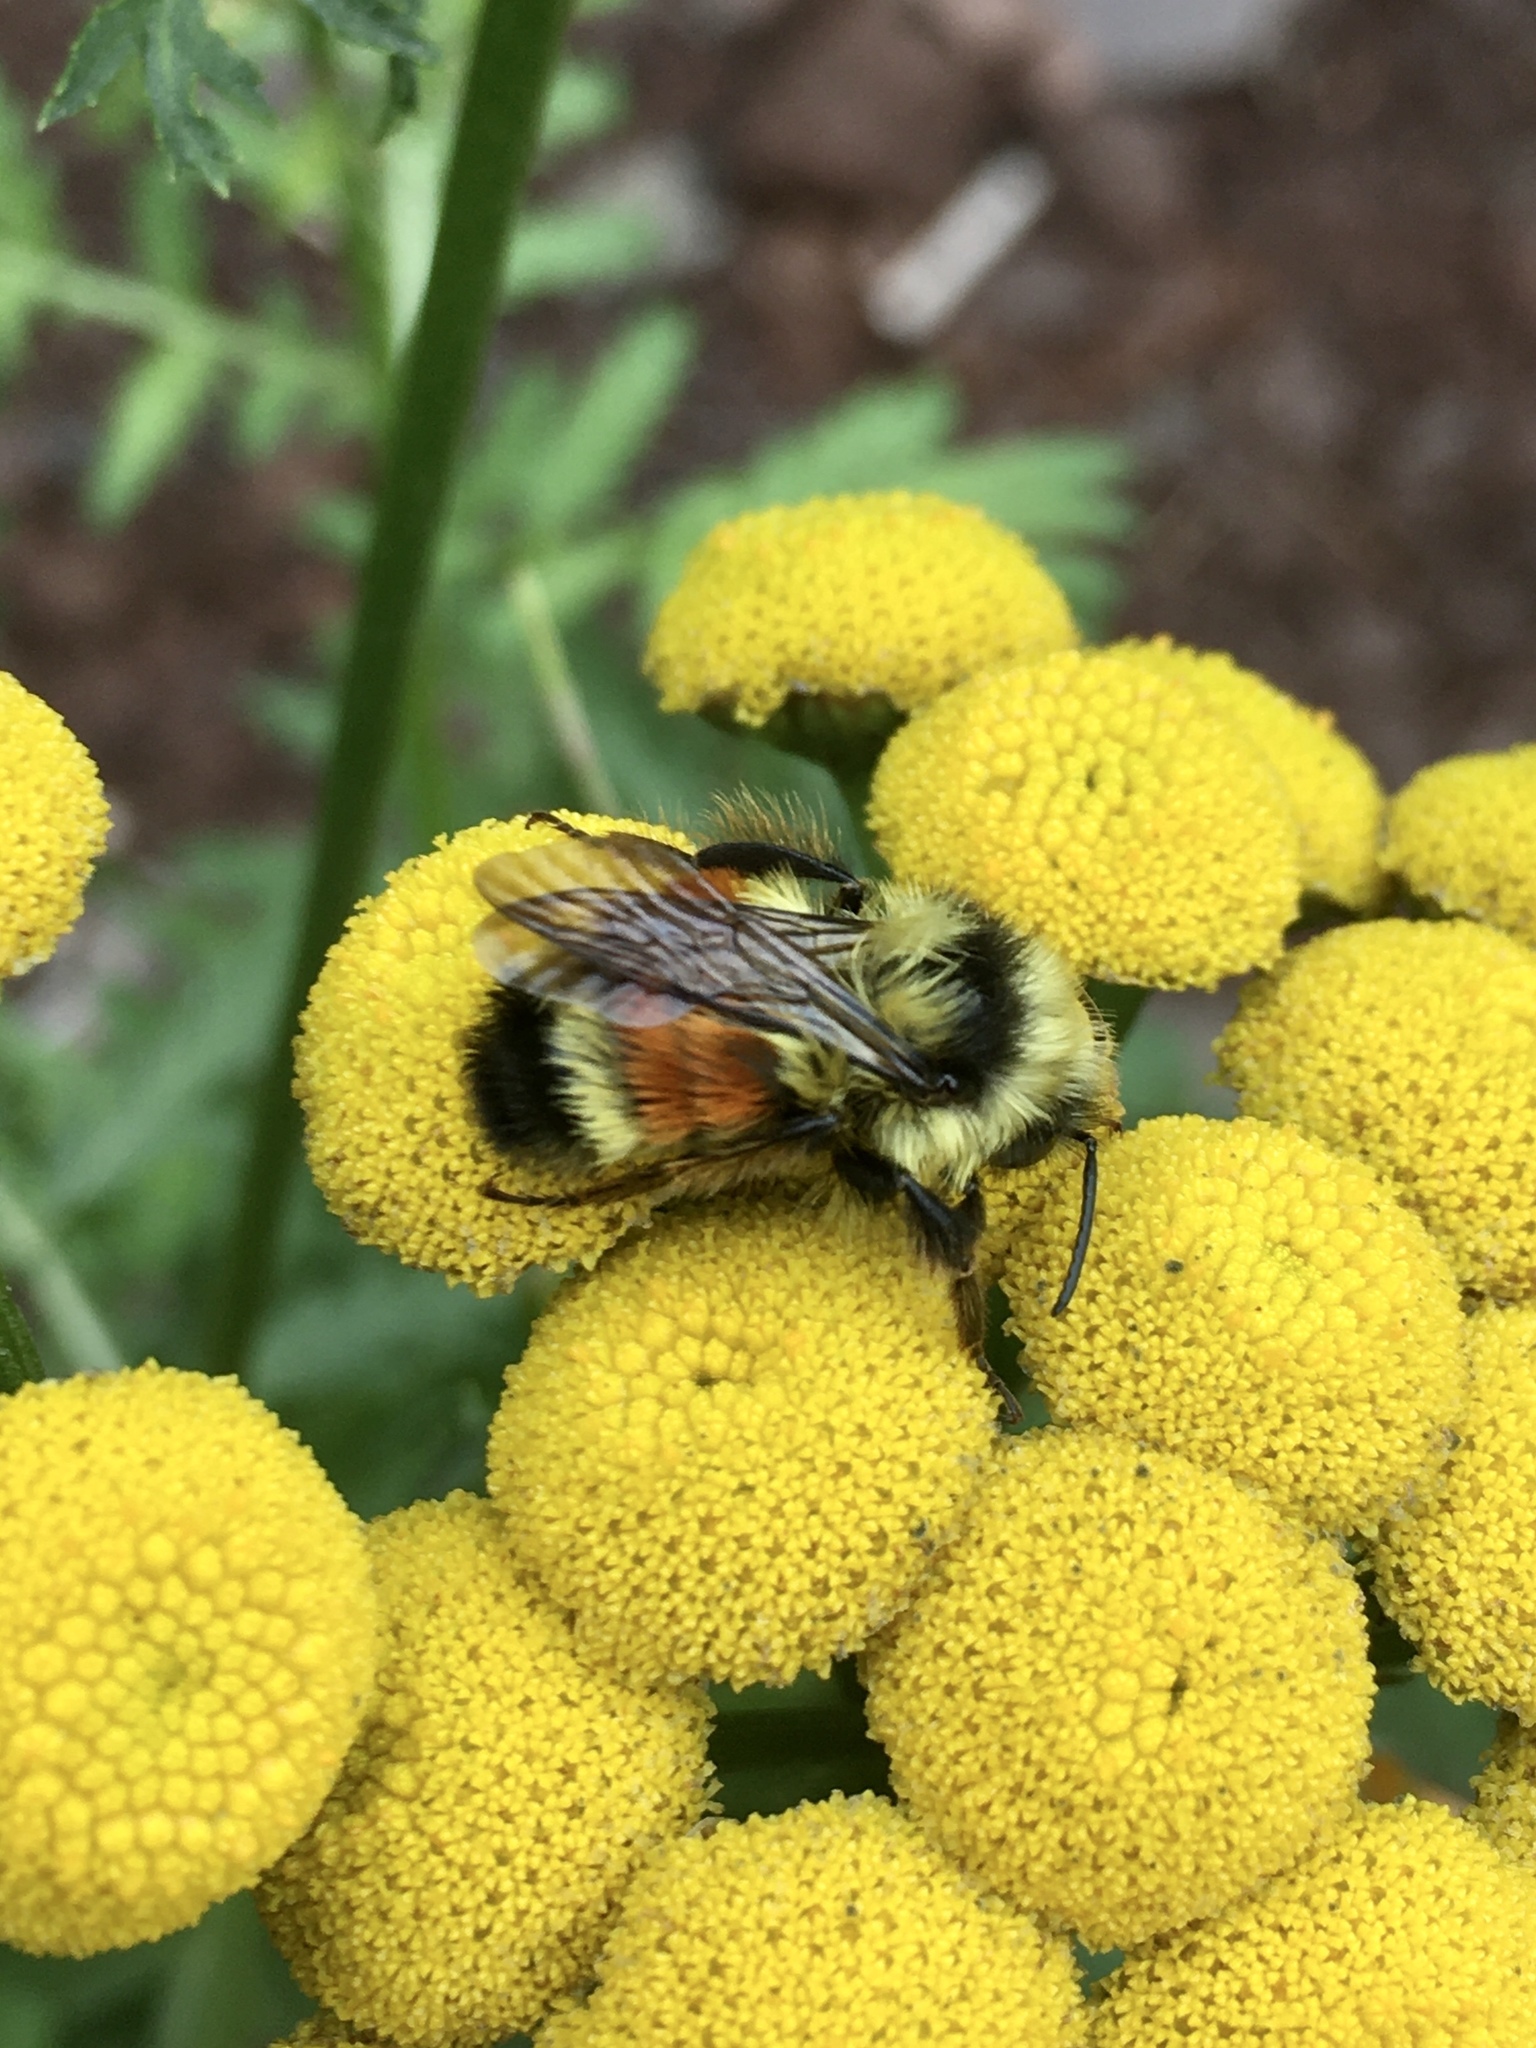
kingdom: Animalia
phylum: Arthropoda
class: Insecta
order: Hymenoptera
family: Apidae
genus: Bombus
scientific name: Bombus ternarius
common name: Tri-colored bumble bee
